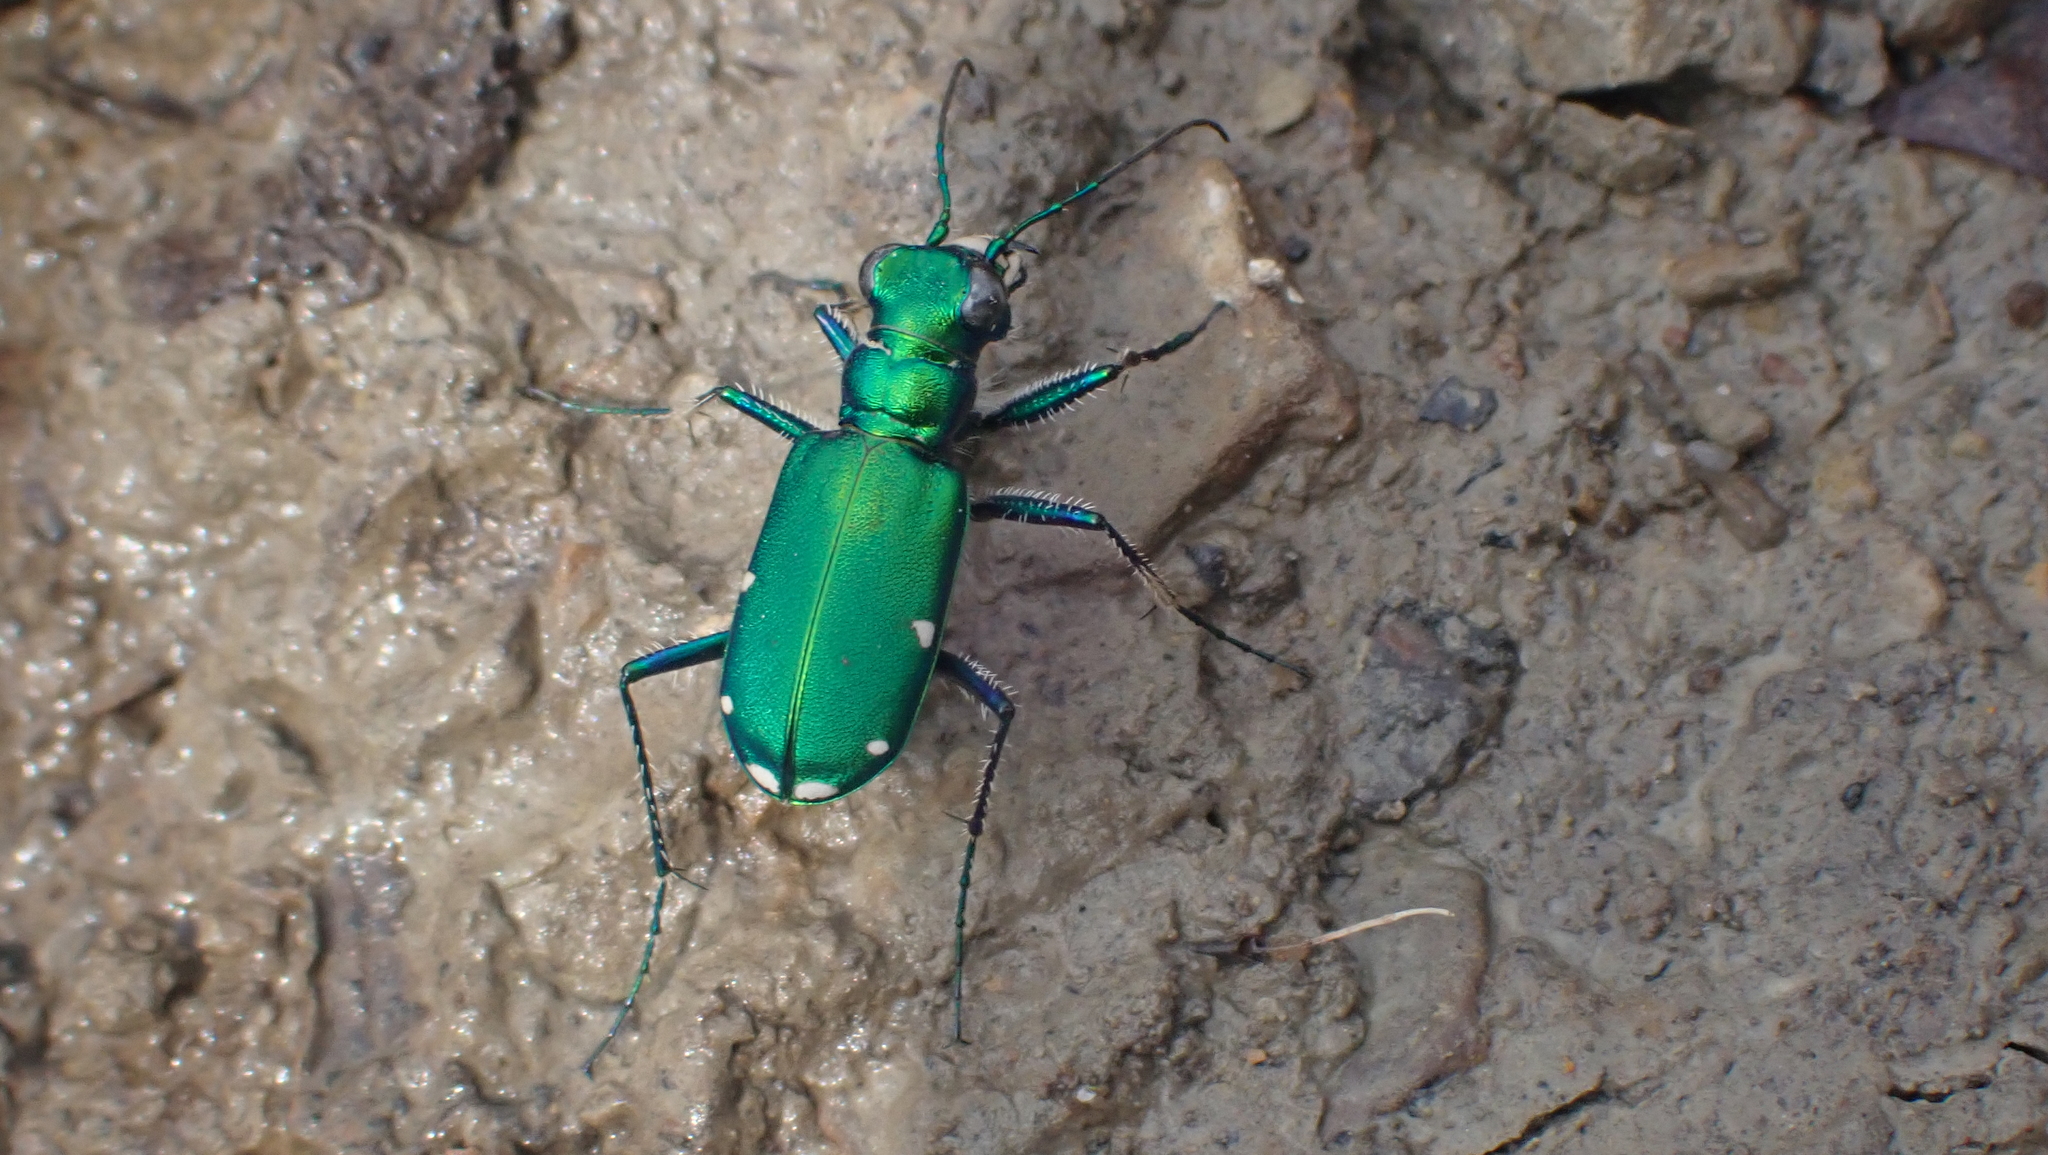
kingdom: Animalia
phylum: Arthropoda
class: Insecta
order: Coleoptera
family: Carabidae
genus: Cicindela
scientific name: Cicindela sexguttata
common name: Six-spotted tiger beetle
